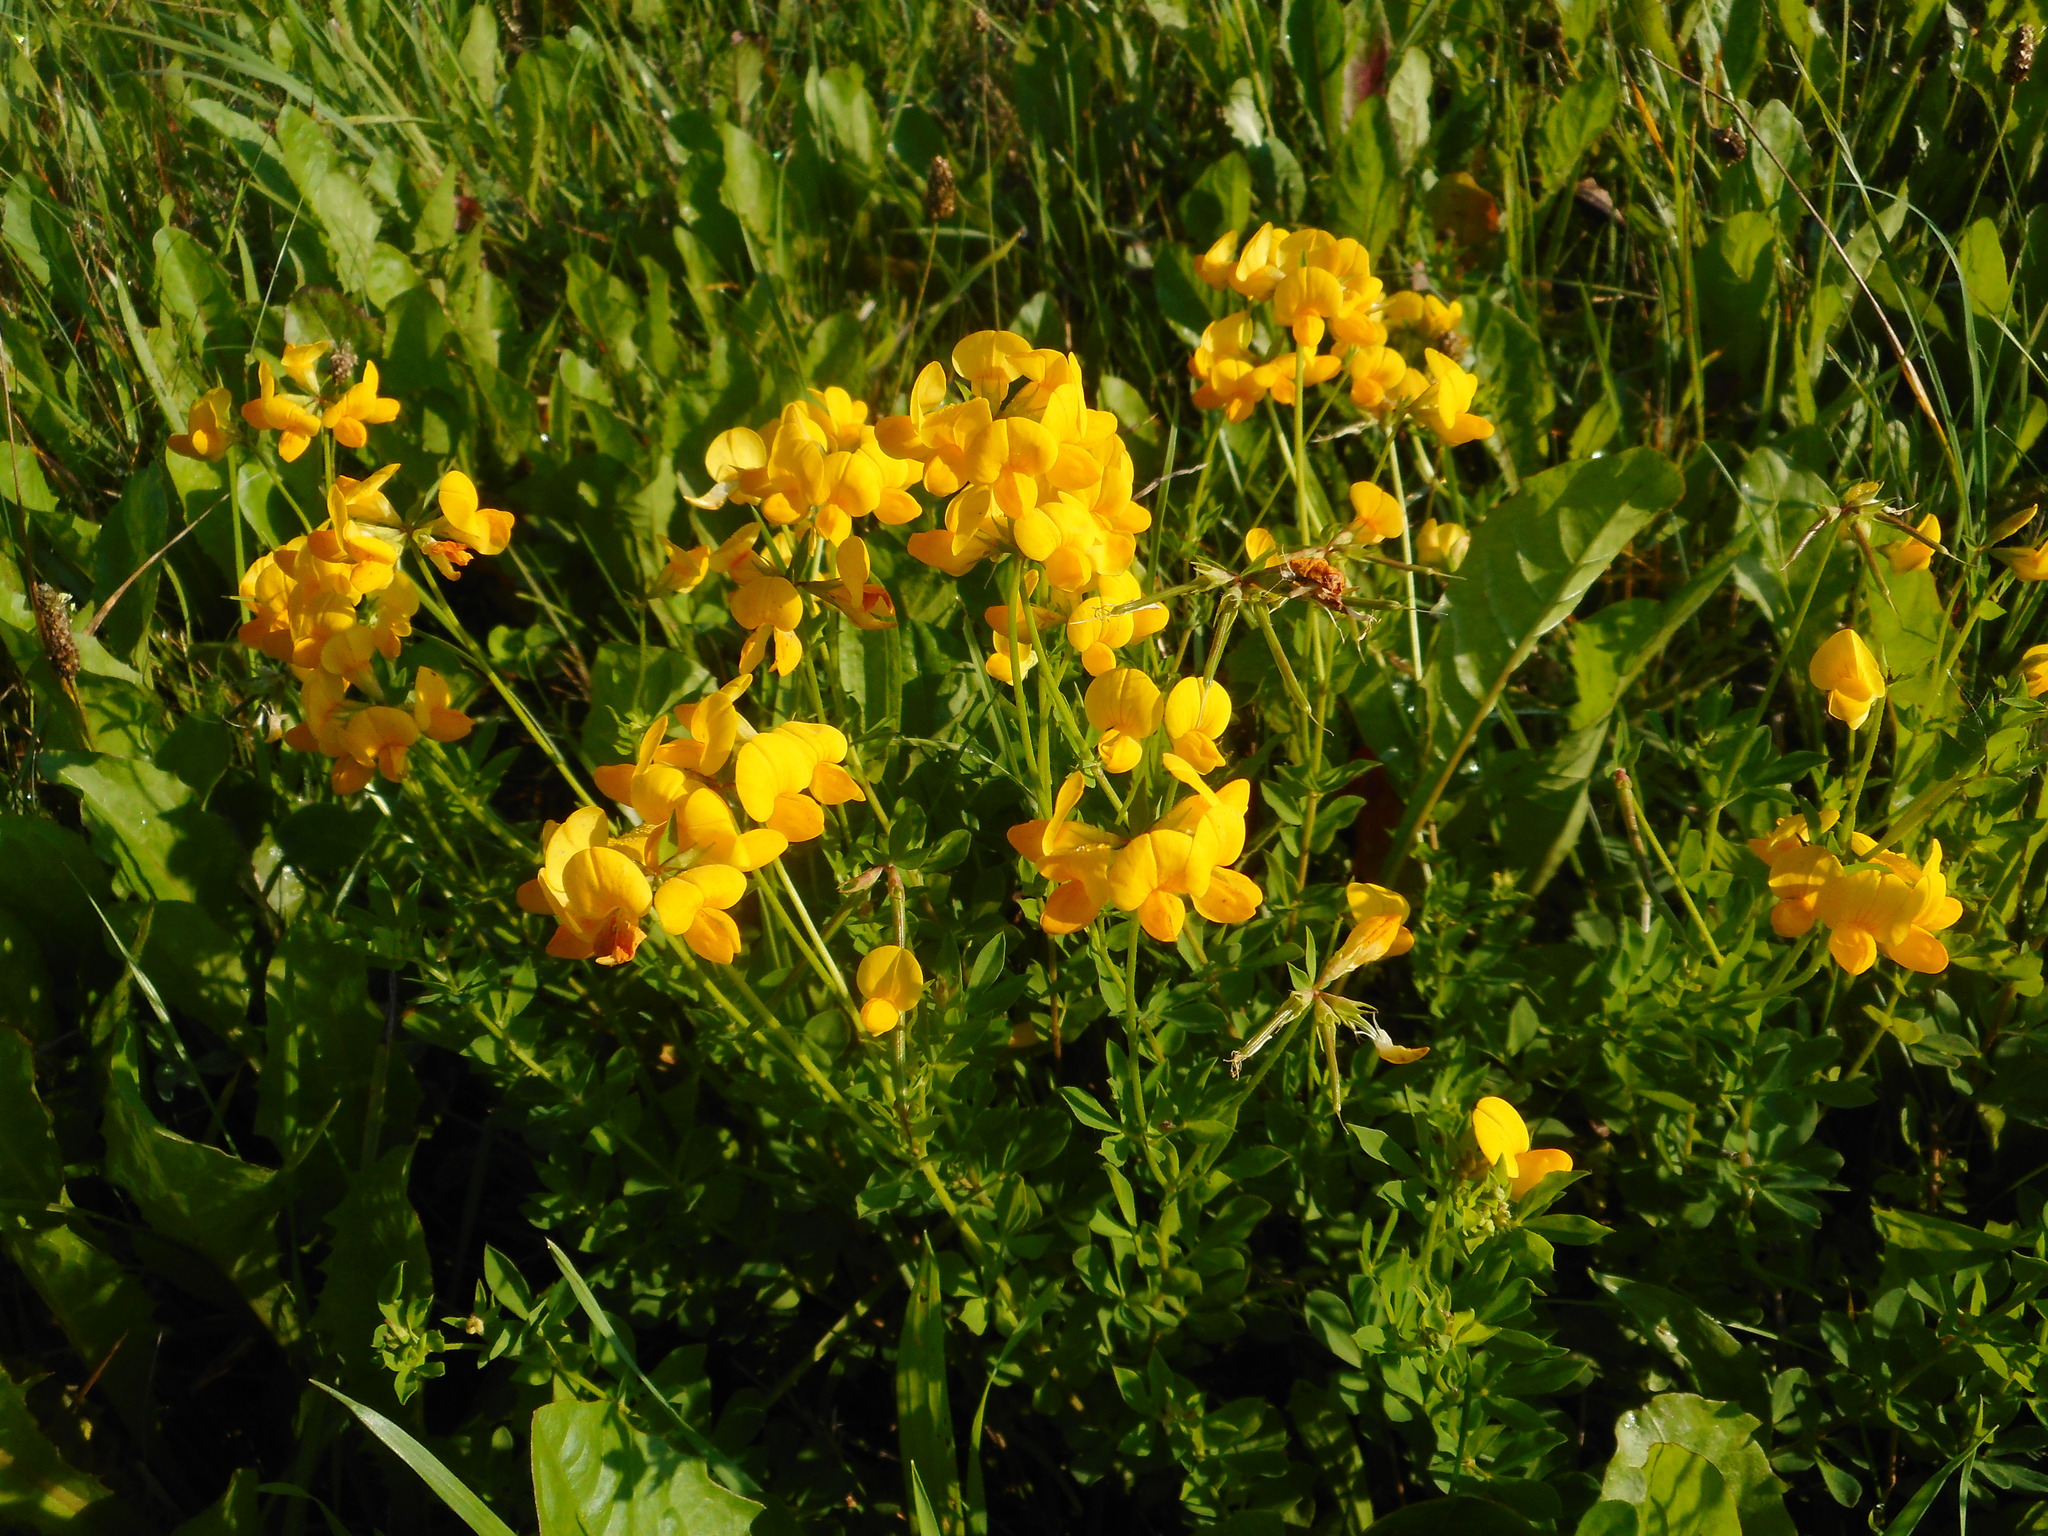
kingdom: Plantae
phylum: Tracheophyta
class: Magnoliopsida
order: Fabales
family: Fabaceae
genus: Lotus
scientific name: Lotus corniculatus
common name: Common bird's-foot-trefoil
